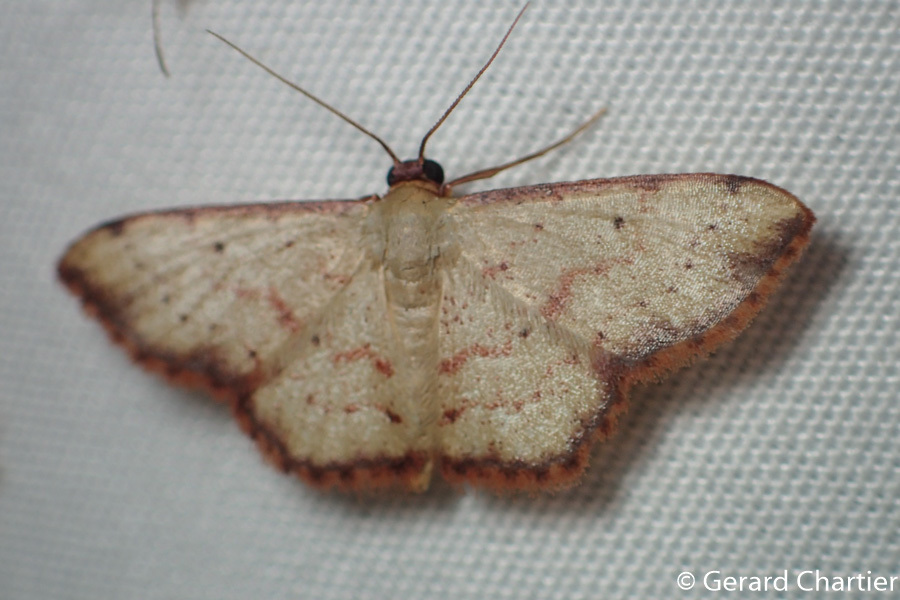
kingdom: Animalia
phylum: Arthropoda
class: Insecta
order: Lepidoptera
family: Geometridae
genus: Idaea
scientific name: Idaea craspedota
